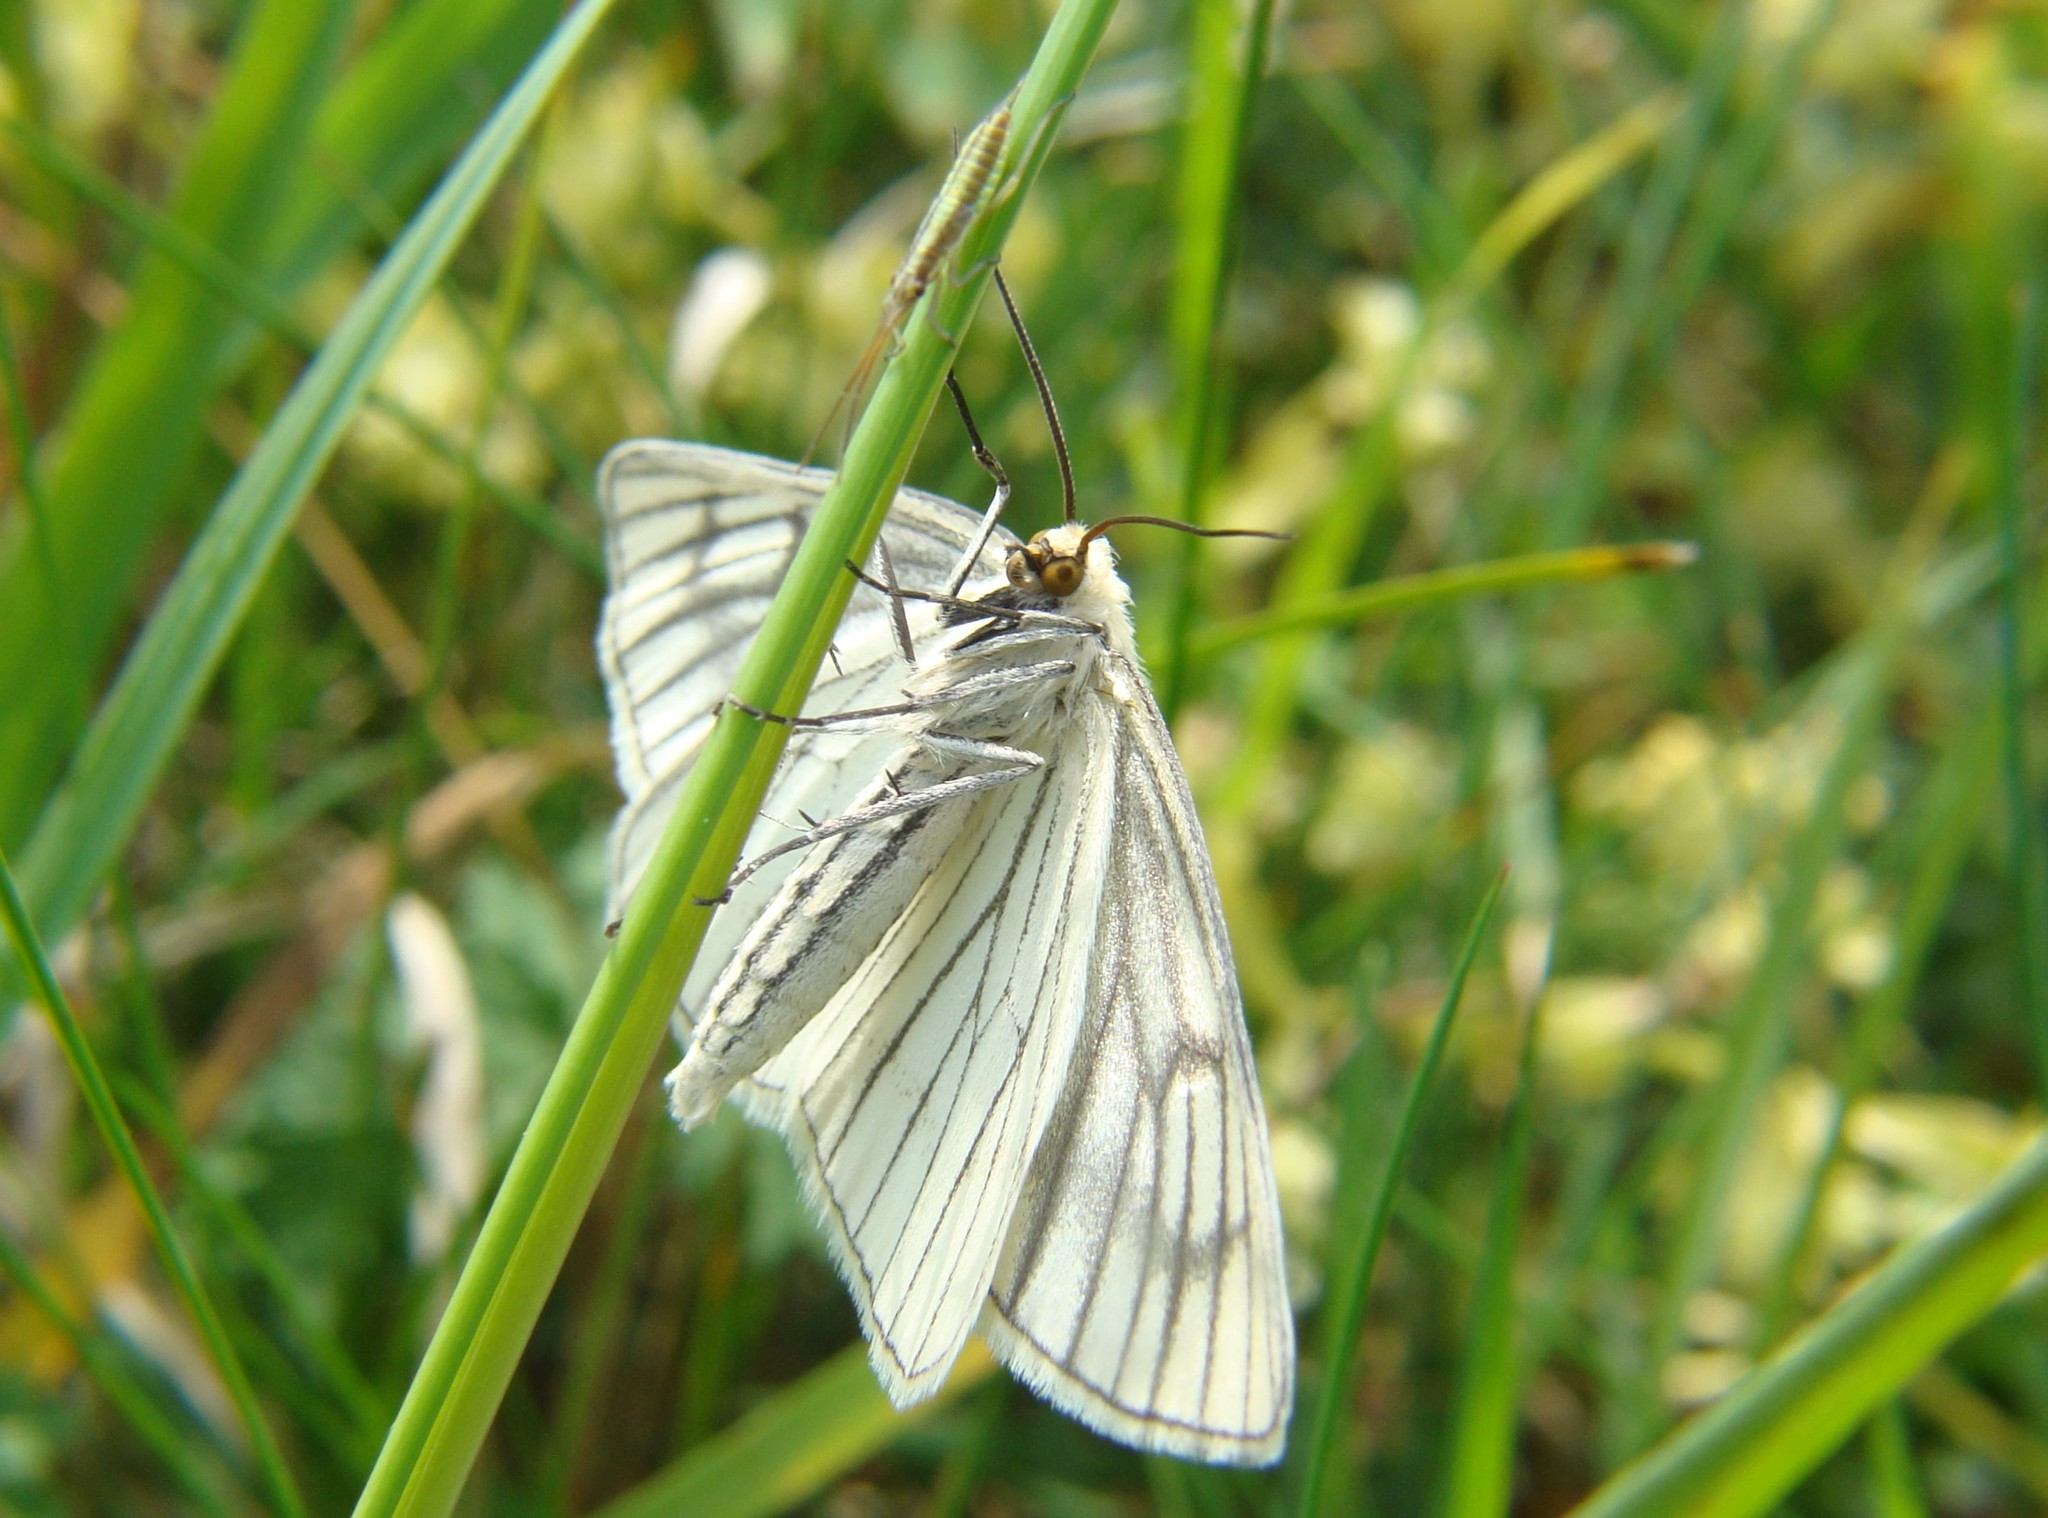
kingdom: Animalia
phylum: Arthropoda
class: Insecta
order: Lepidoptera
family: Geometridae
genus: Siona
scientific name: Siona lineata
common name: Black-veined moth
